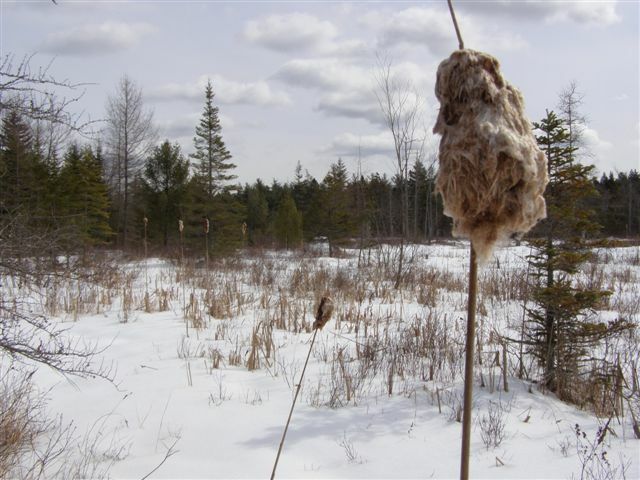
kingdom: Plantae
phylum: Tracheophyta
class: Liliopsida
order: Poales
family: Typhaceae
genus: Typha
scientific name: Typha
